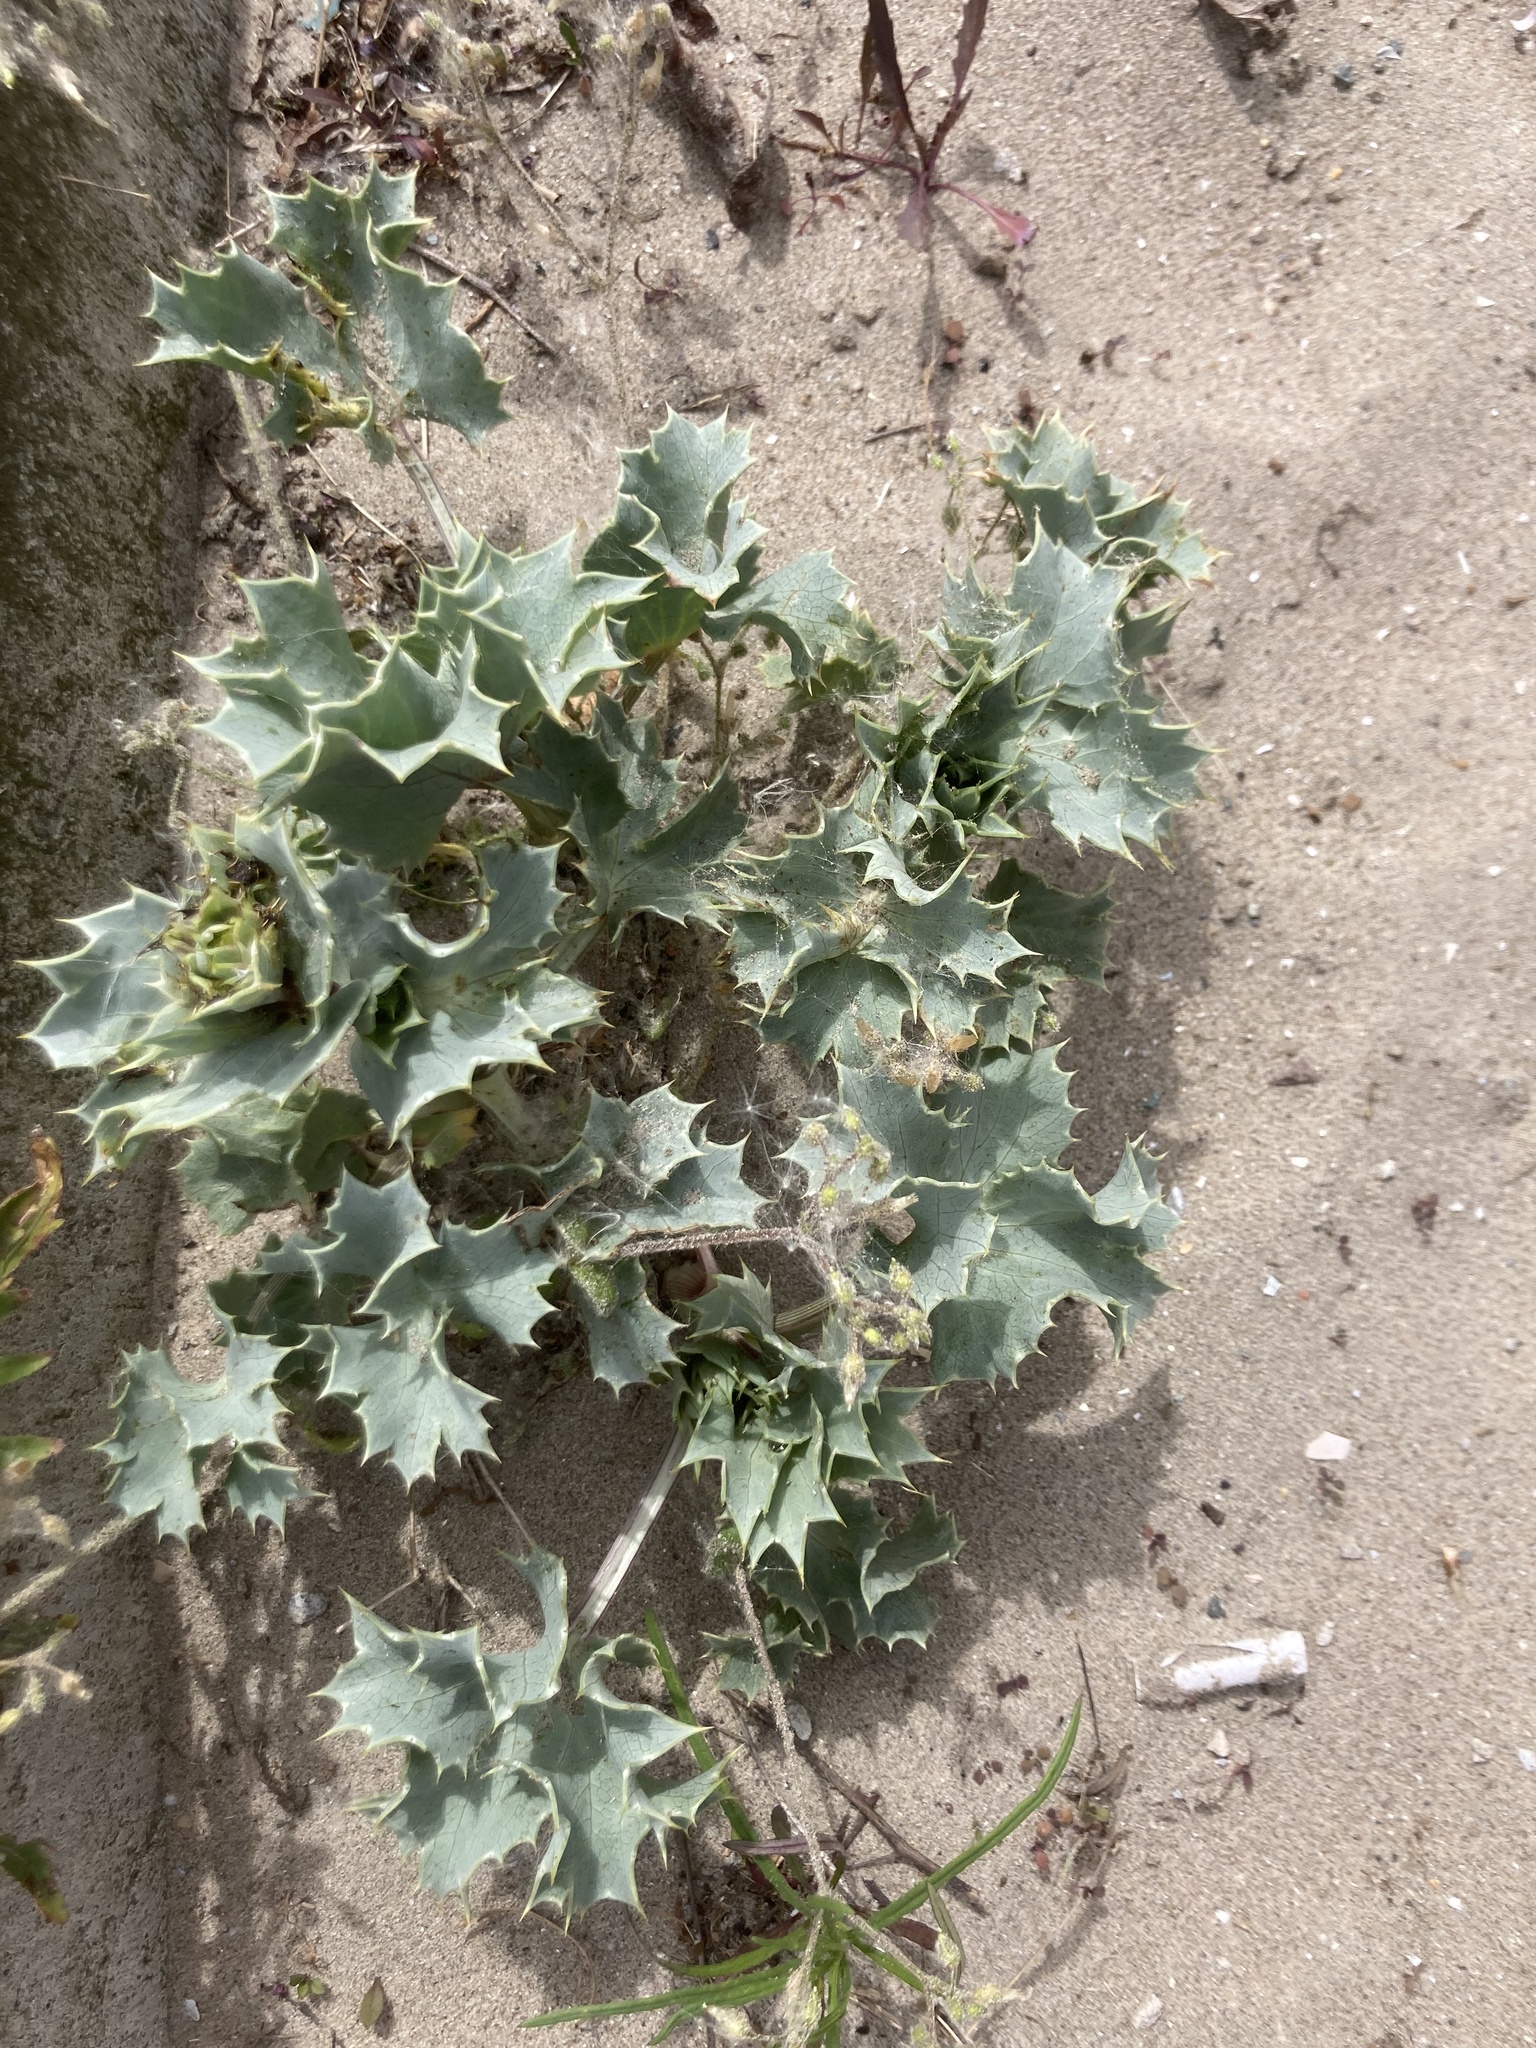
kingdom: Plantae
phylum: Tracheophyta
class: Magnoliopsida
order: Apiales
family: Apiaceae
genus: Eryngium
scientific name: Eryngium maritimum
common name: Sea-holly
